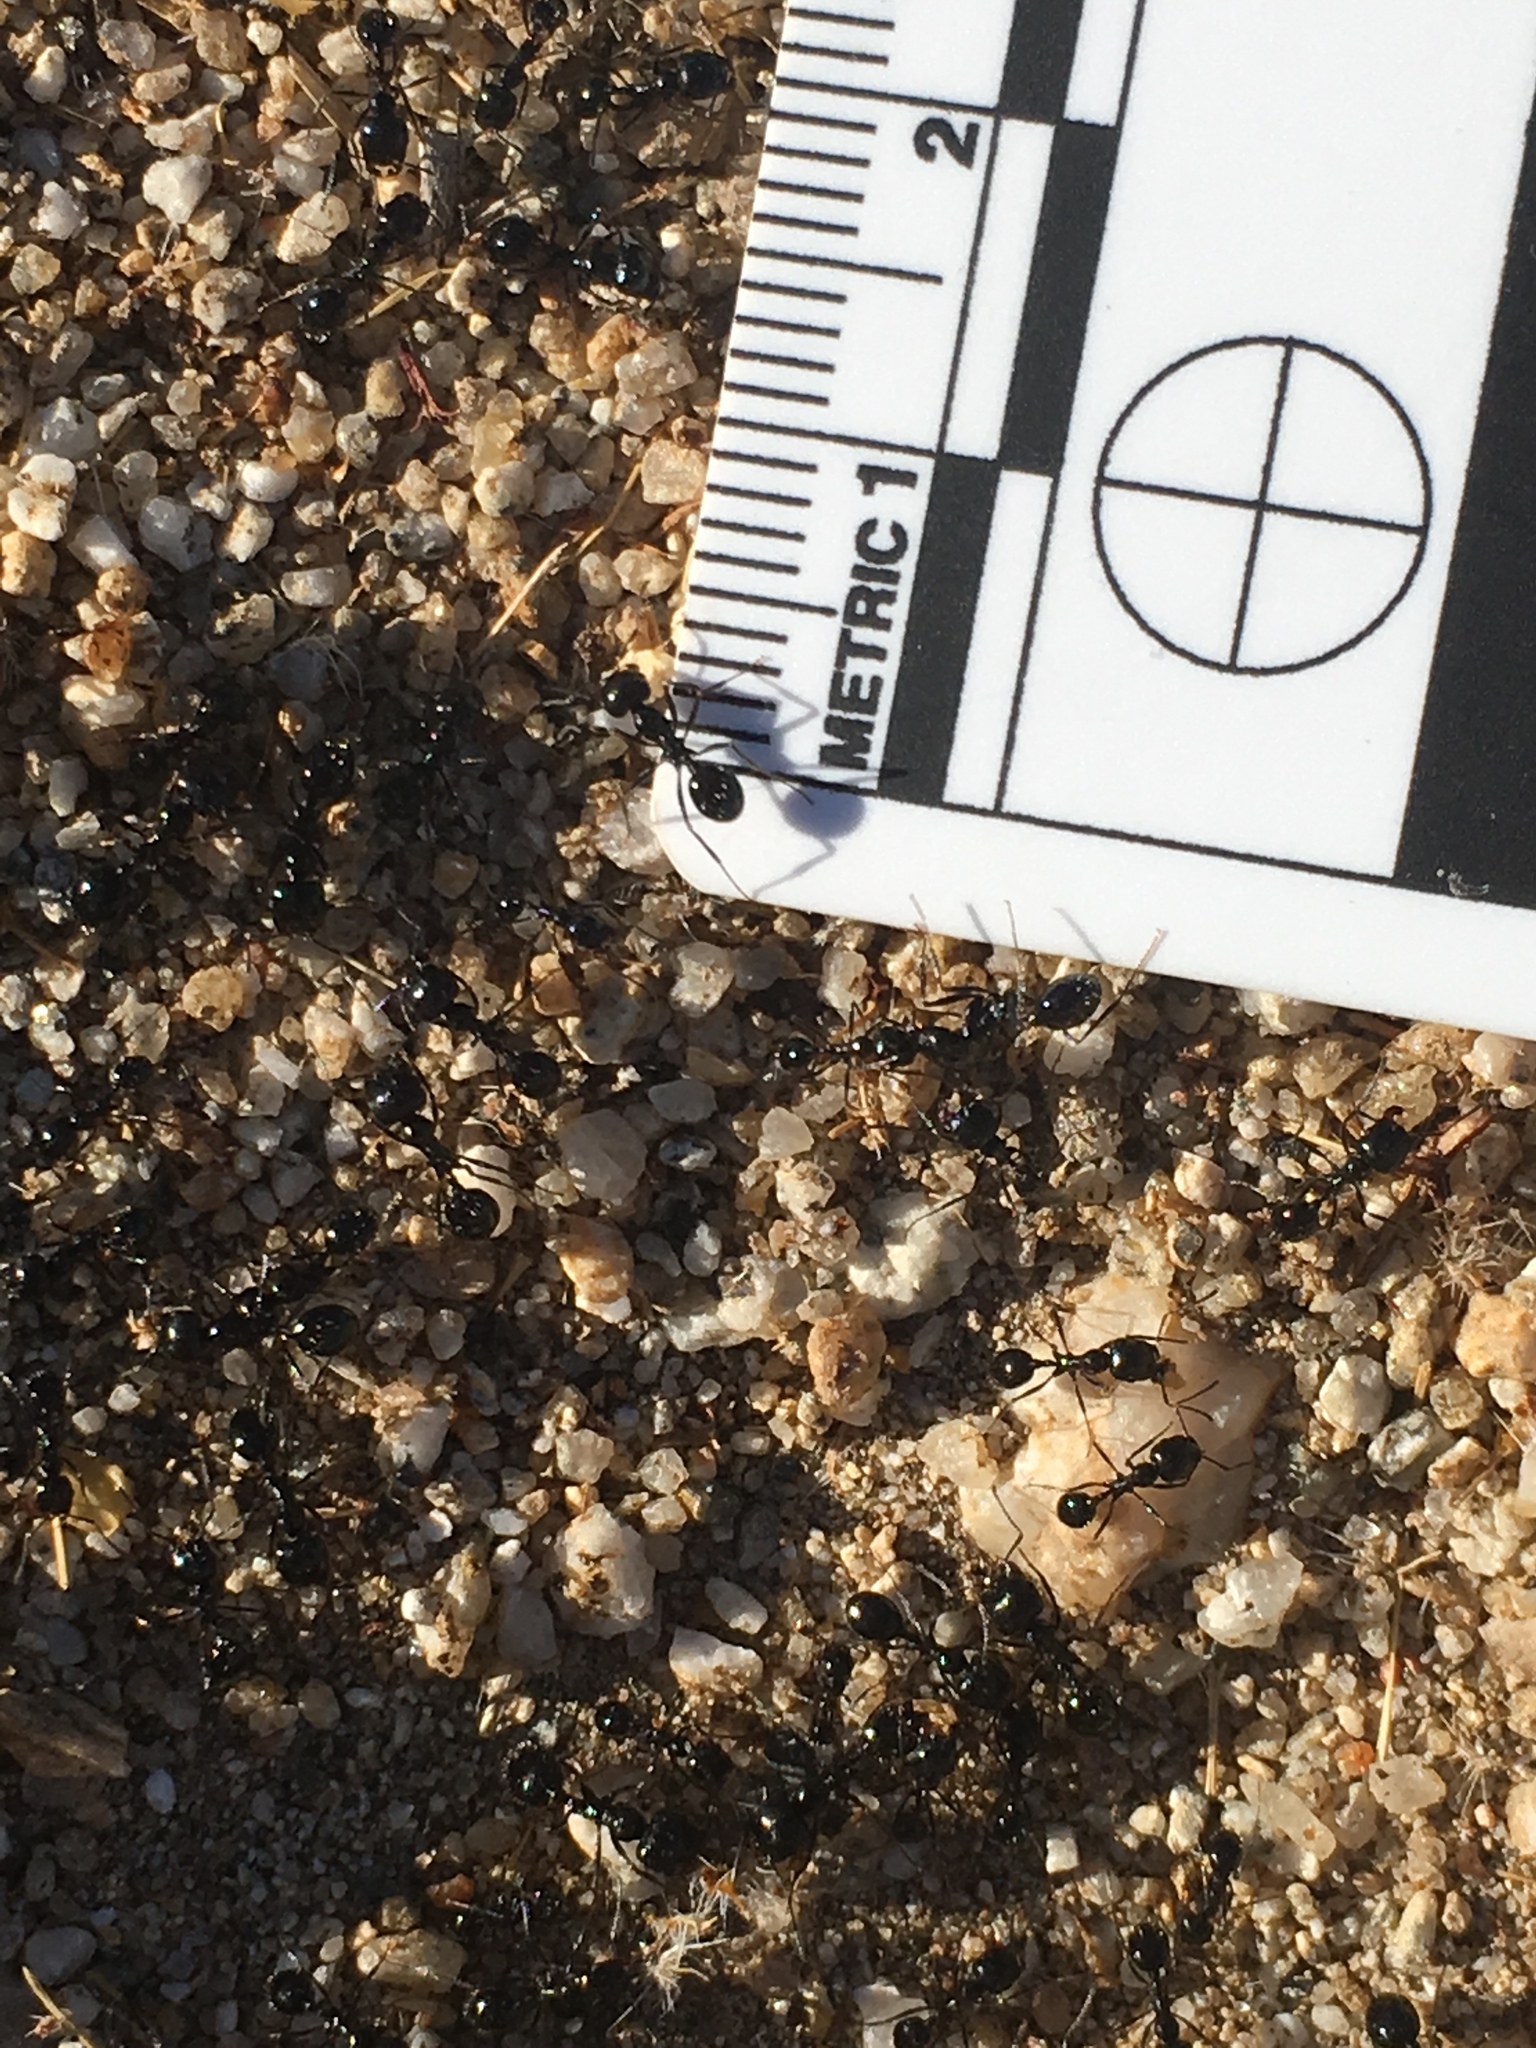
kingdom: Animalia
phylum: Arthropoda
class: Insecta
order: Hymenoptera
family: Formicidae
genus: Messor
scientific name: Messor pergandei
